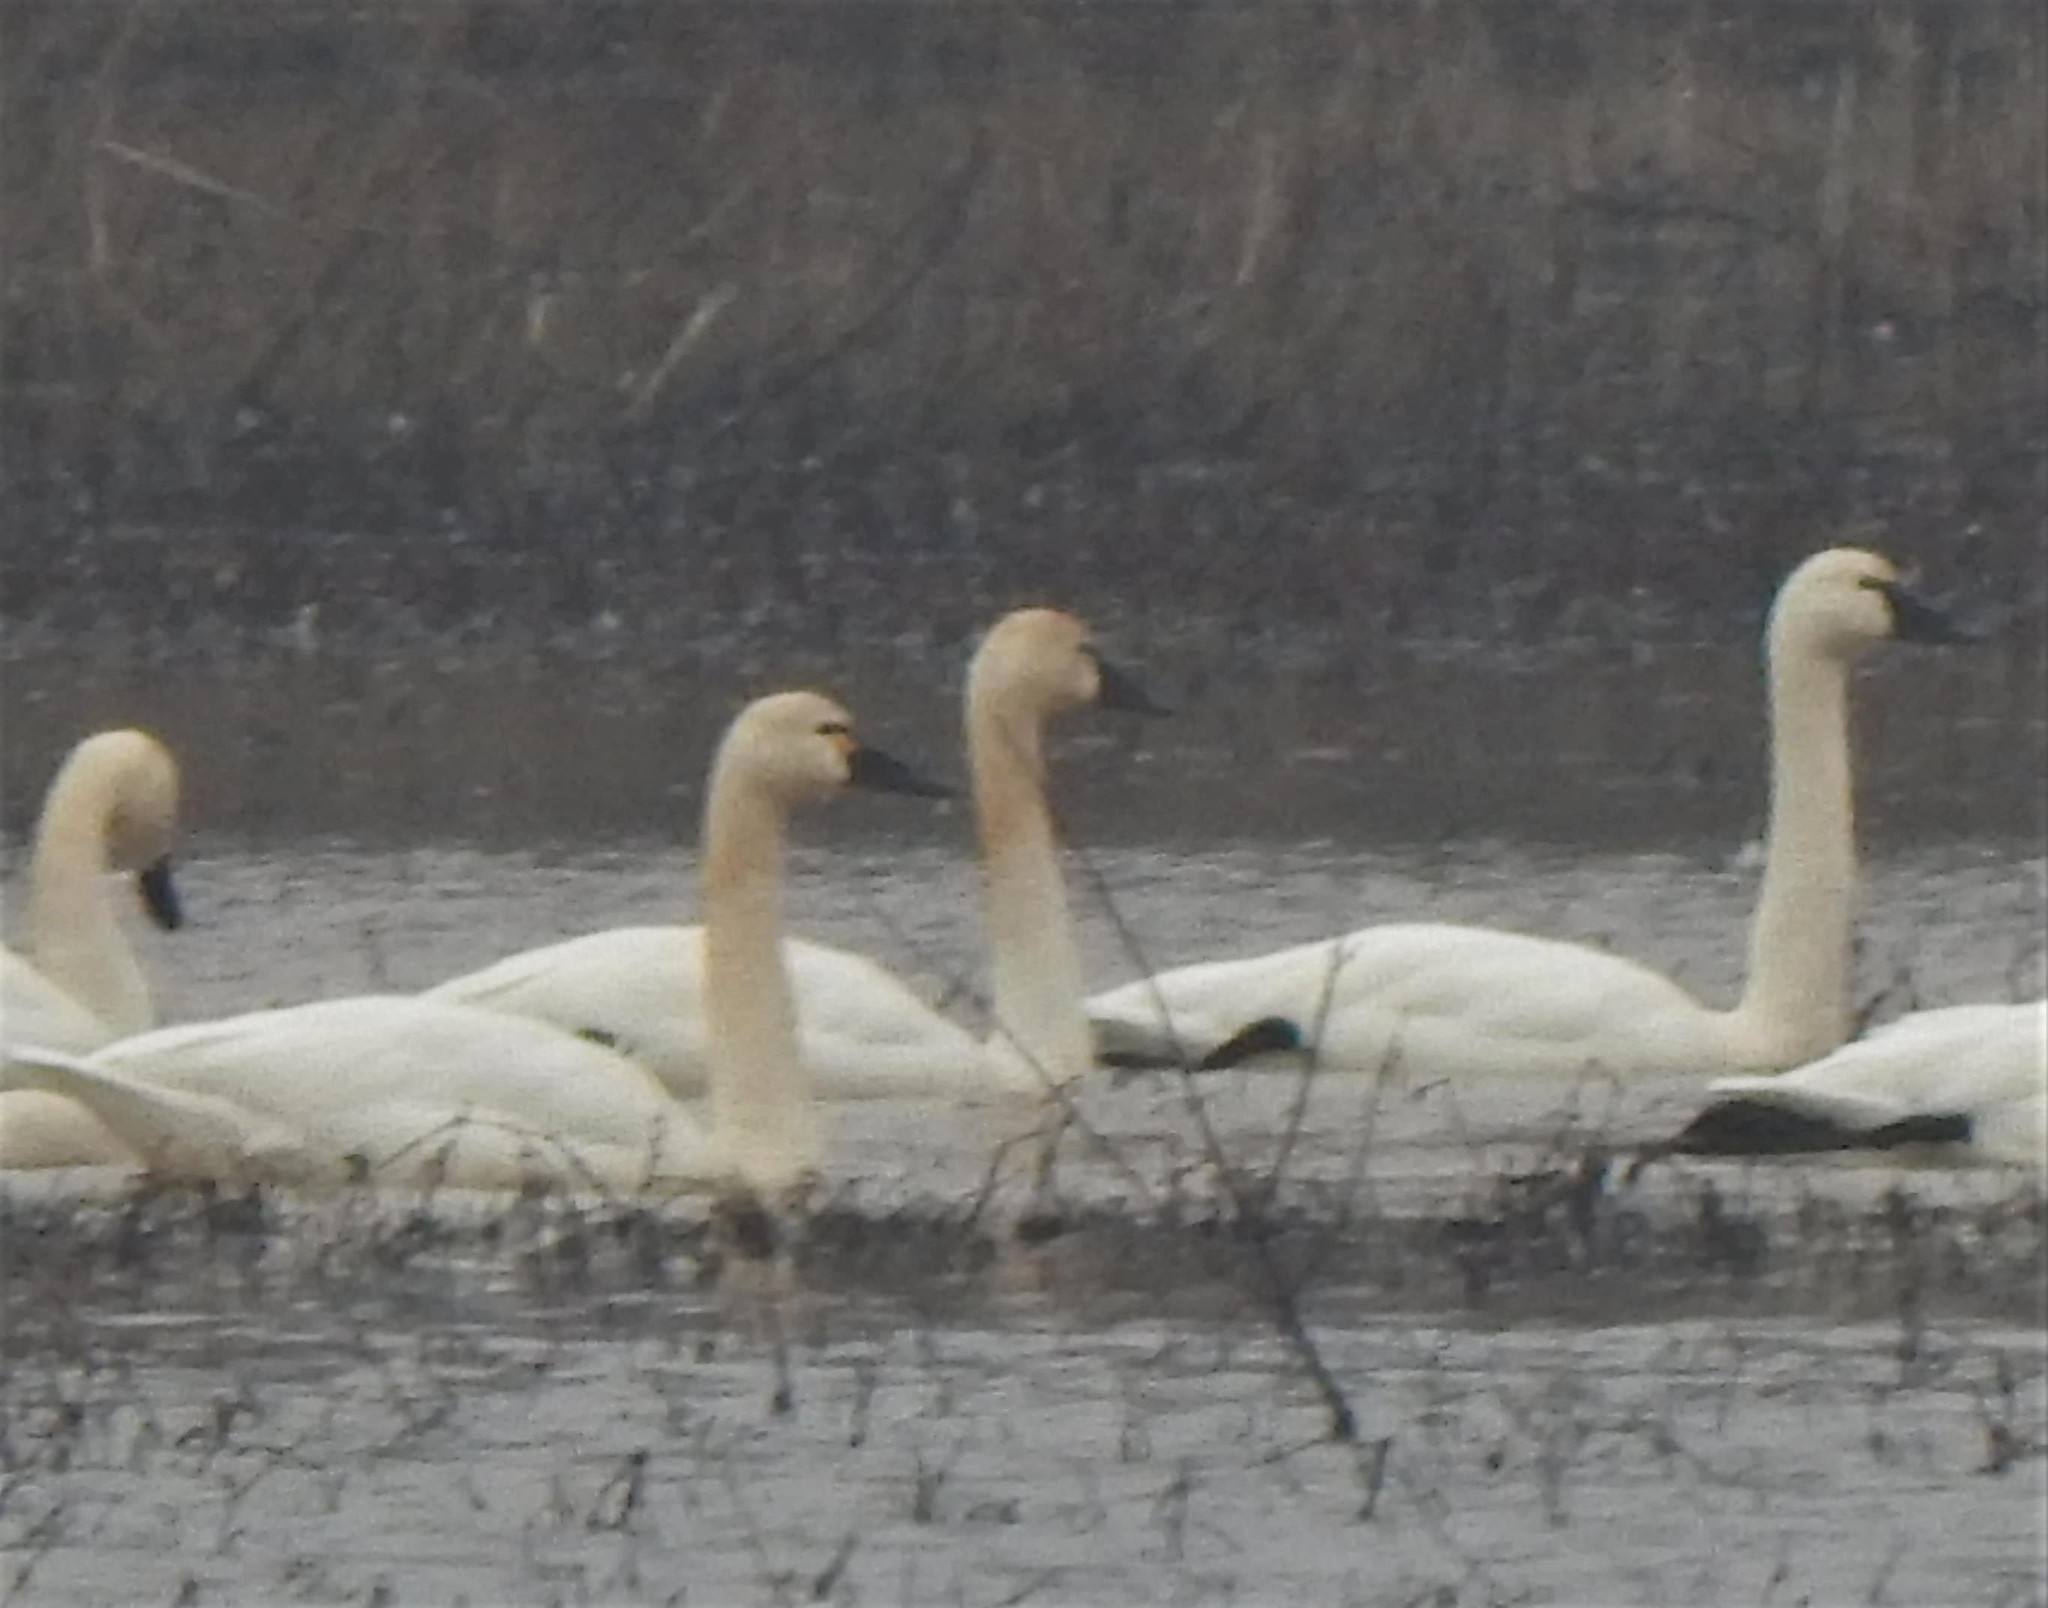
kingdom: Animalia
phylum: Chordata
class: Aves
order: Anseriformes
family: Anatidae
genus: Cygnus
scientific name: Cygnus columbianus
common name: Tundra swan
